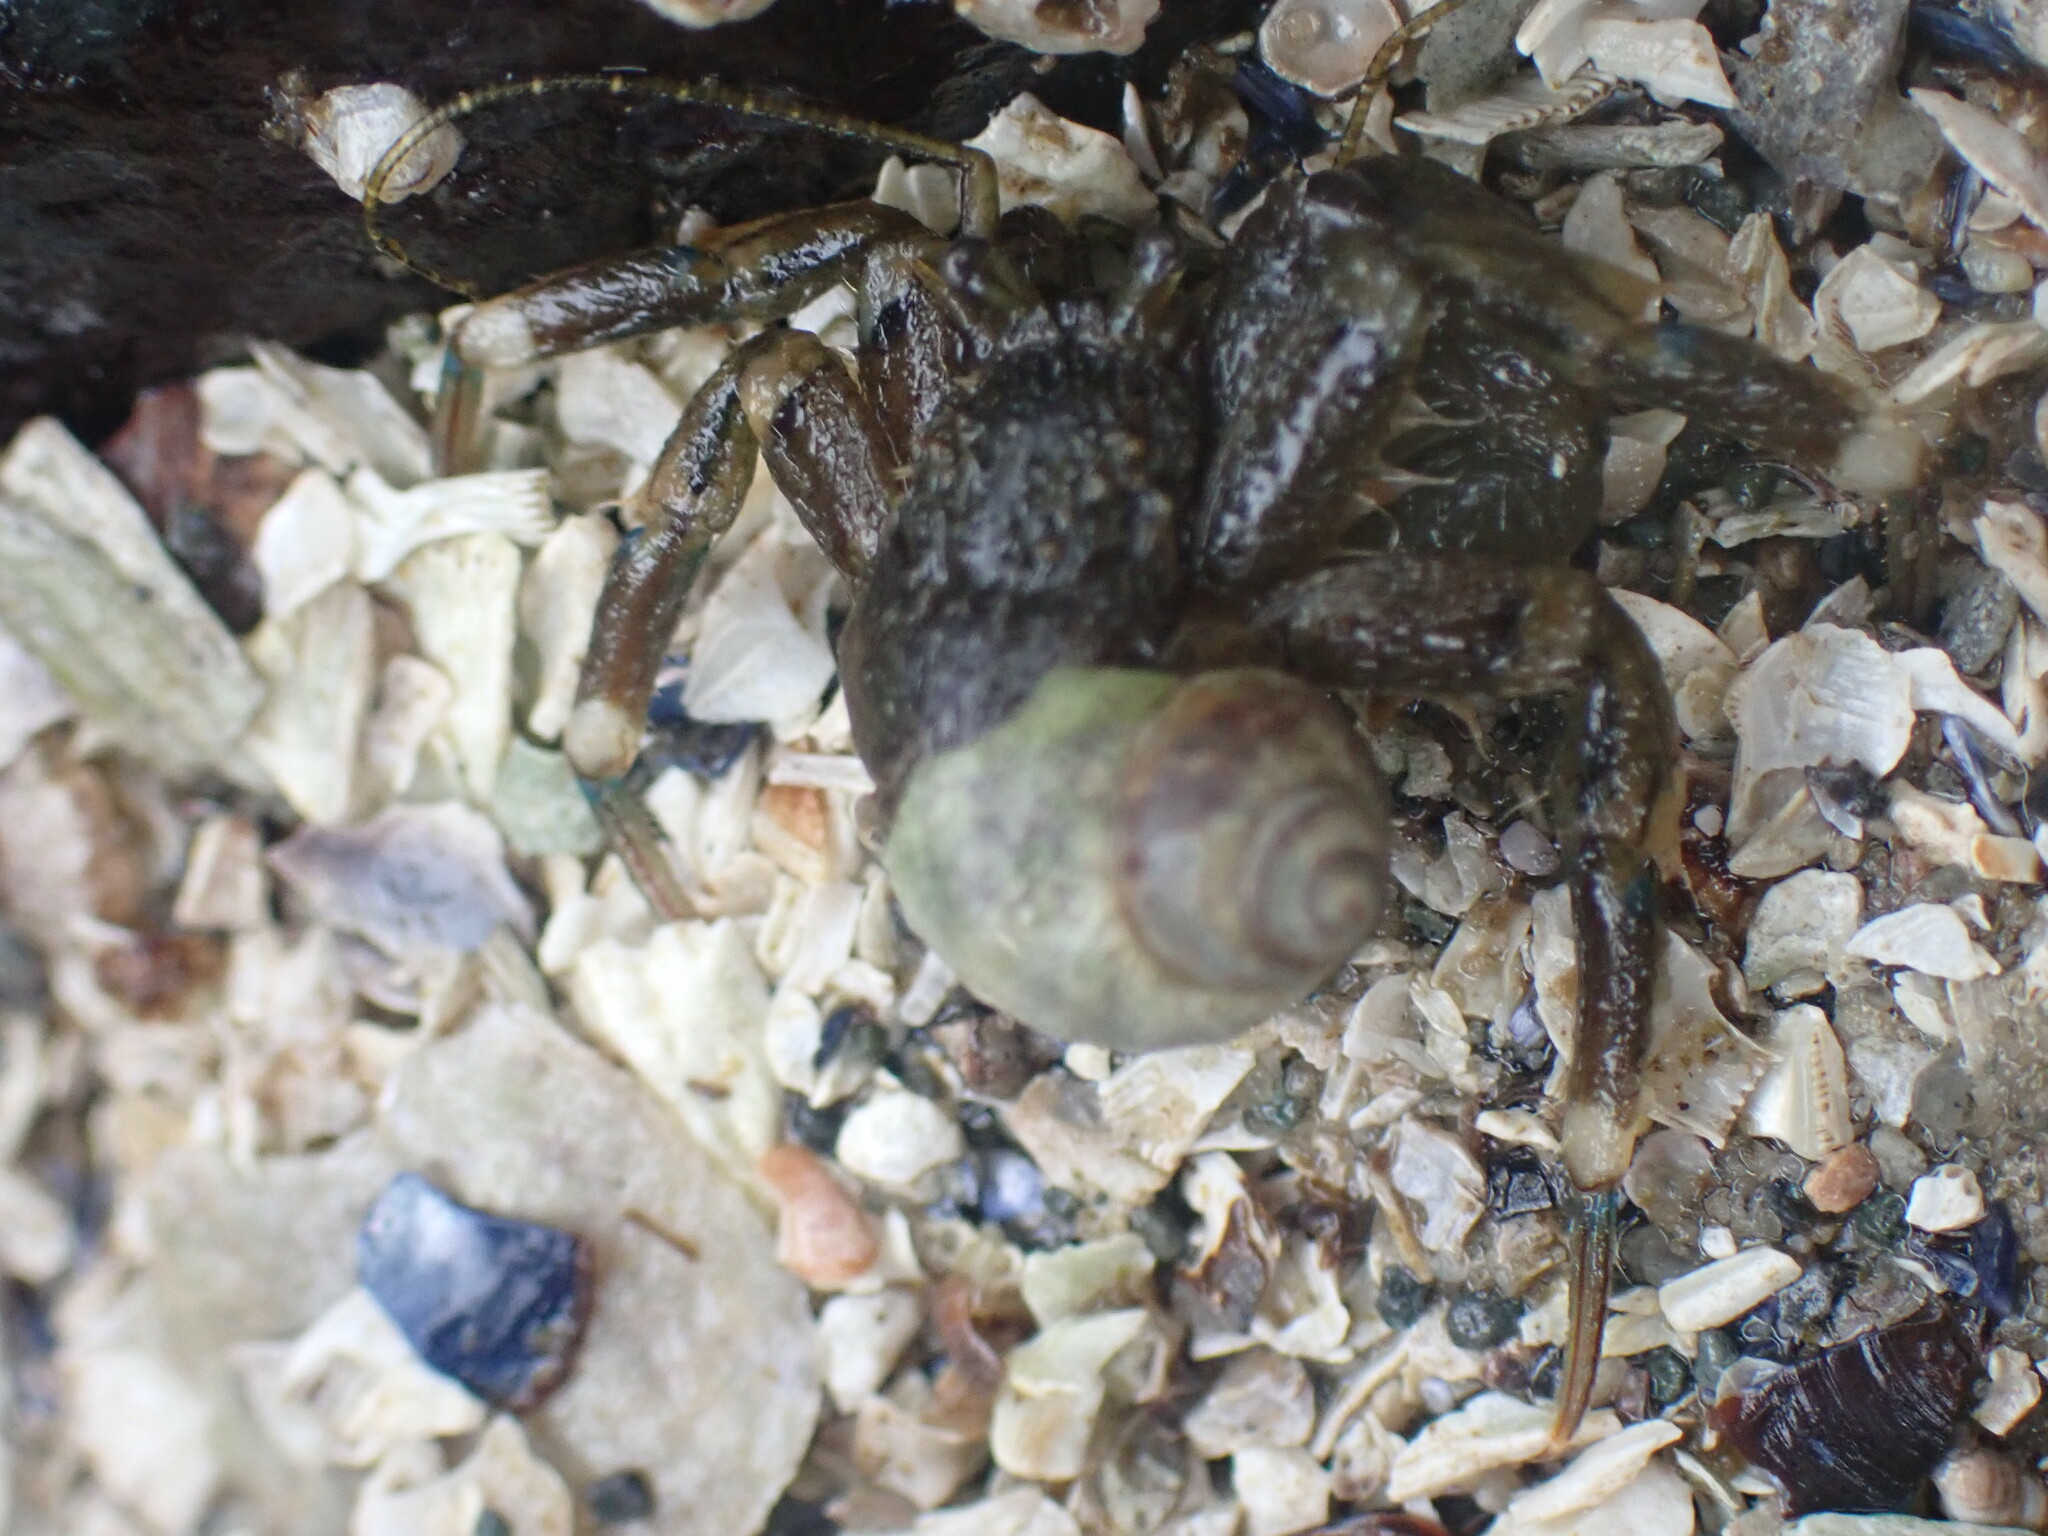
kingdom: Animalia
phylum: Arthropoda
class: Malacostraca
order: Decapoda
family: Paguridae
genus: Pagurus
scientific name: Pagurus hirsutiusculus
